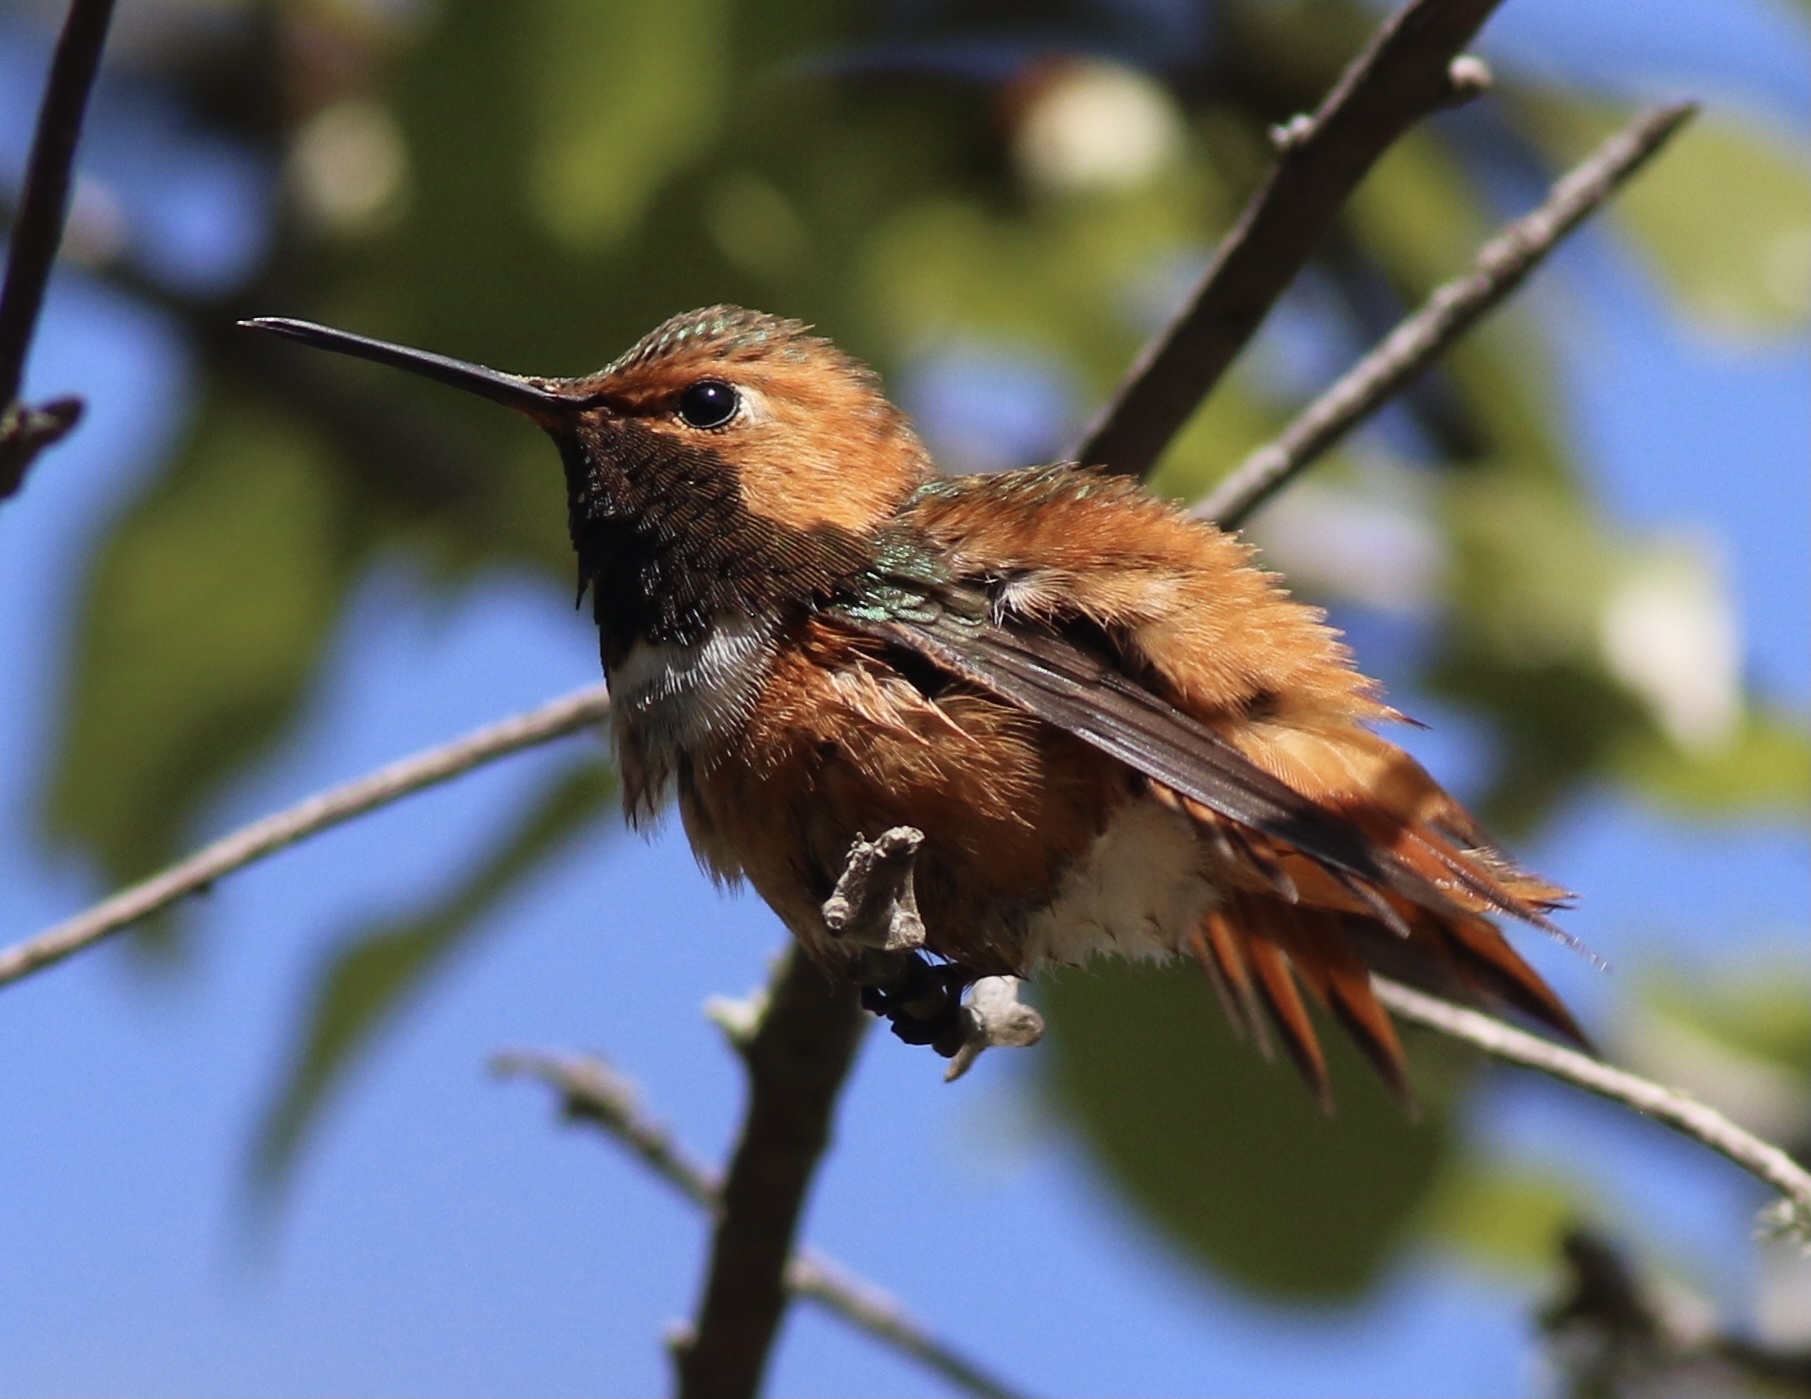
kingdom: Animalia
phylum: Chordata
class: Aves
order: Apodiformes
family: Trochilidae
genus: Selasphorus
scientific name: Selasphorus sasin
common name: Allen's hummingbird
